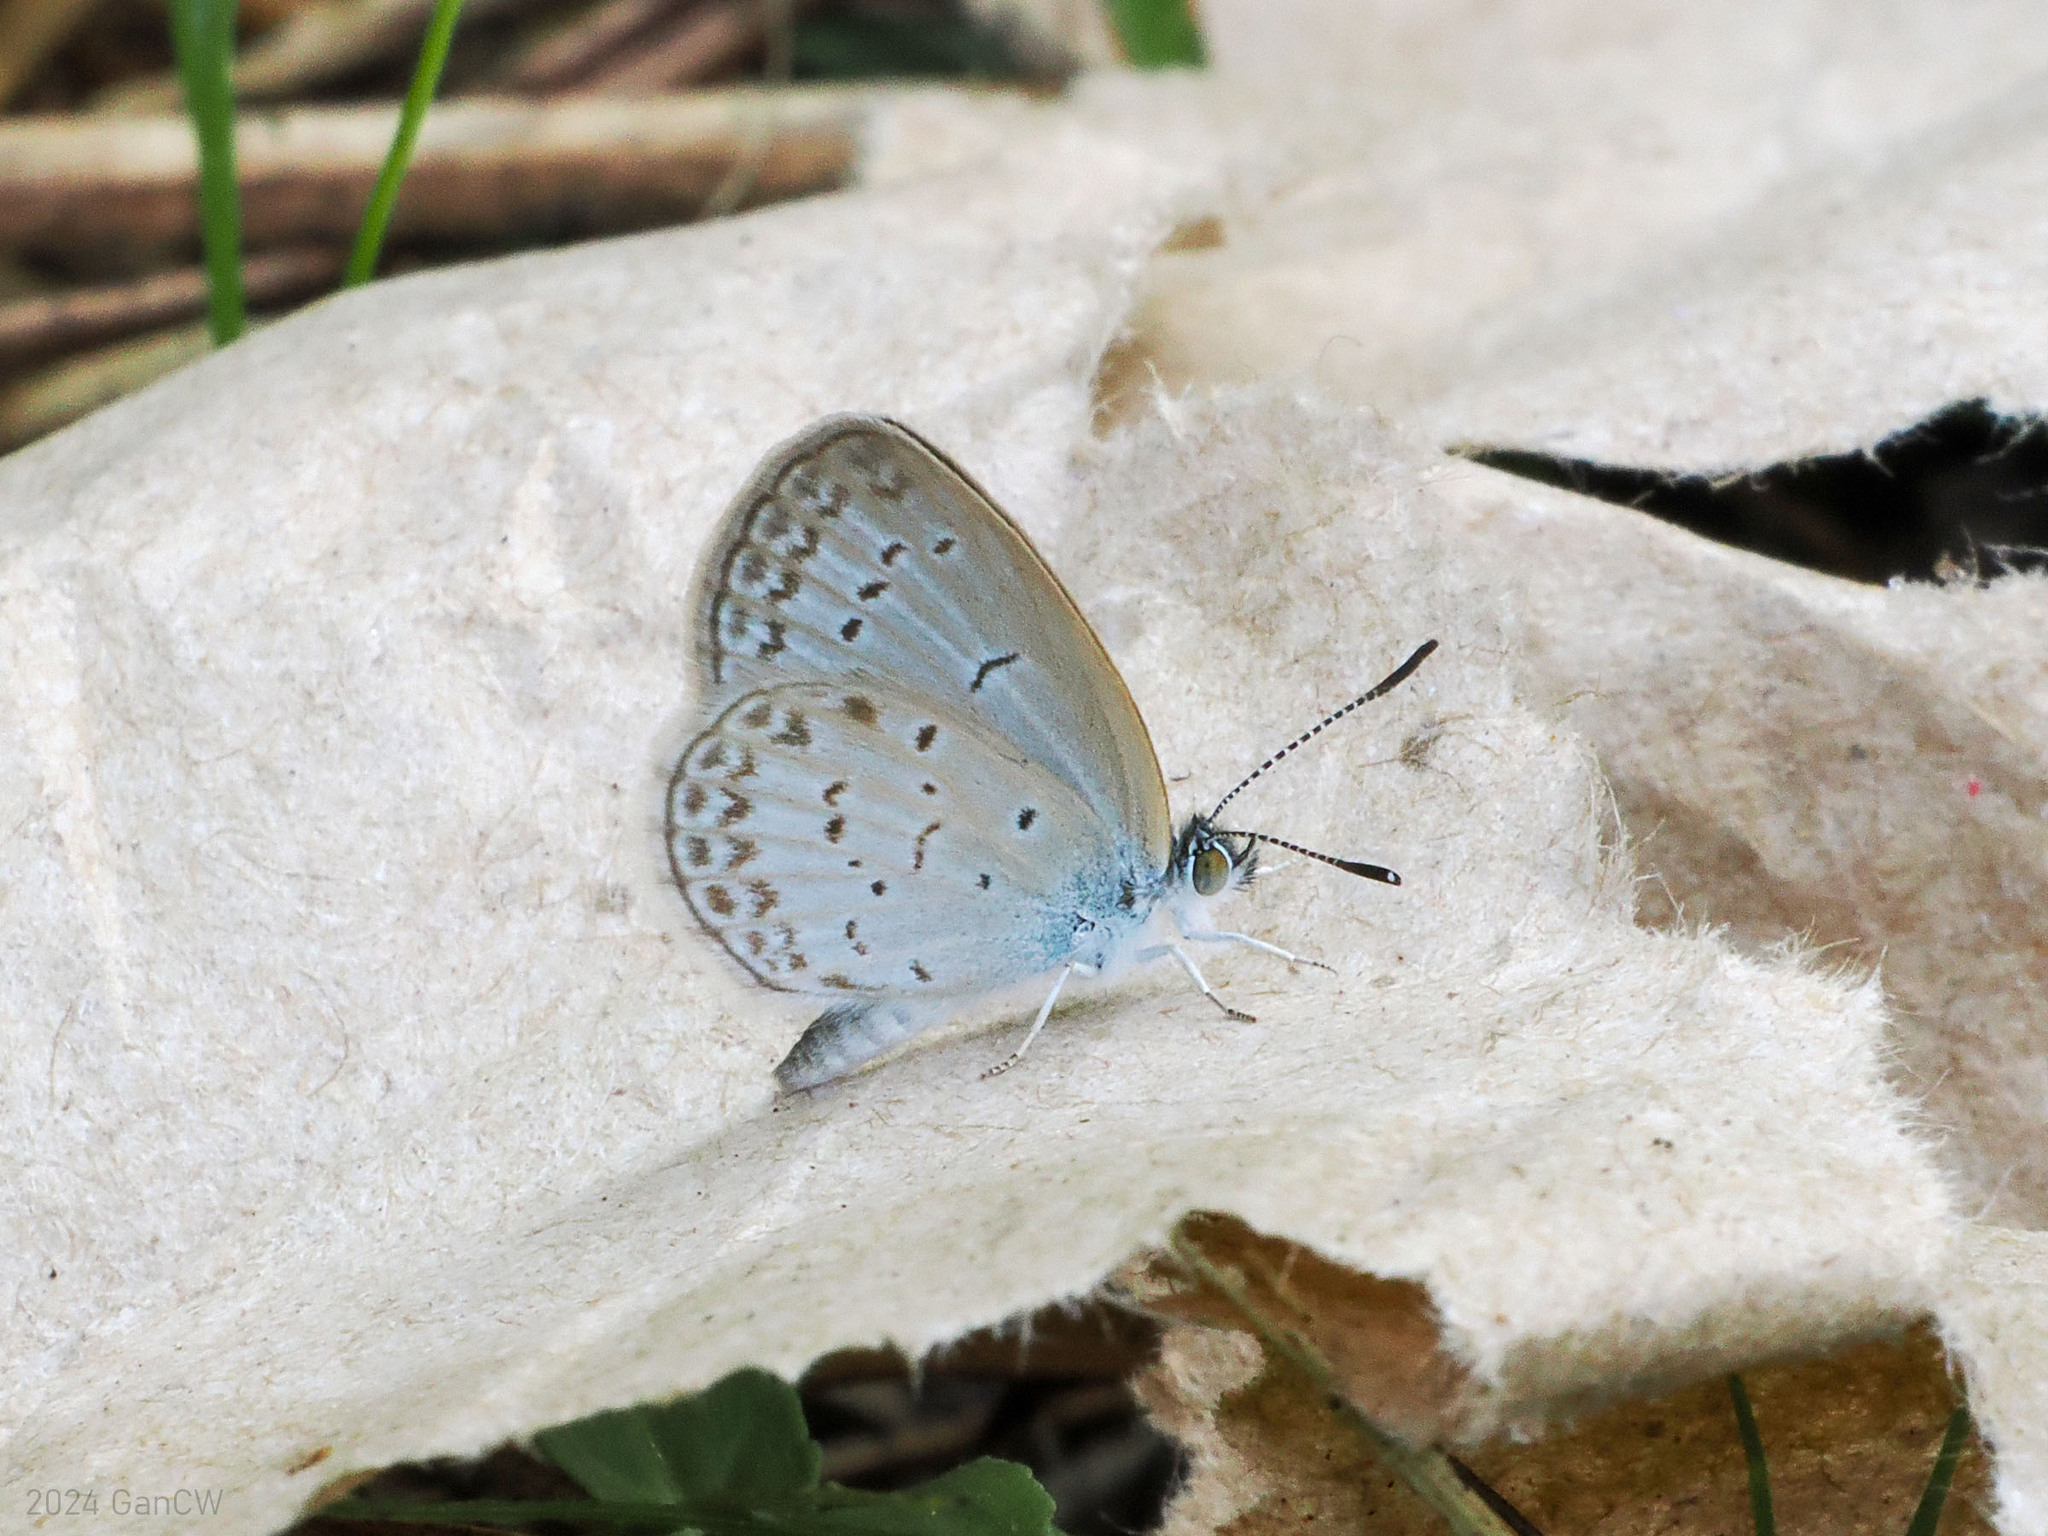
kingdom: Animalia
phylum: Arthropoda
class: Insecta
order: Lepidoptera
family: Lycaenidae
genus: Zizina
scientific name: Zizina otis
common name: Lesser grass blue
